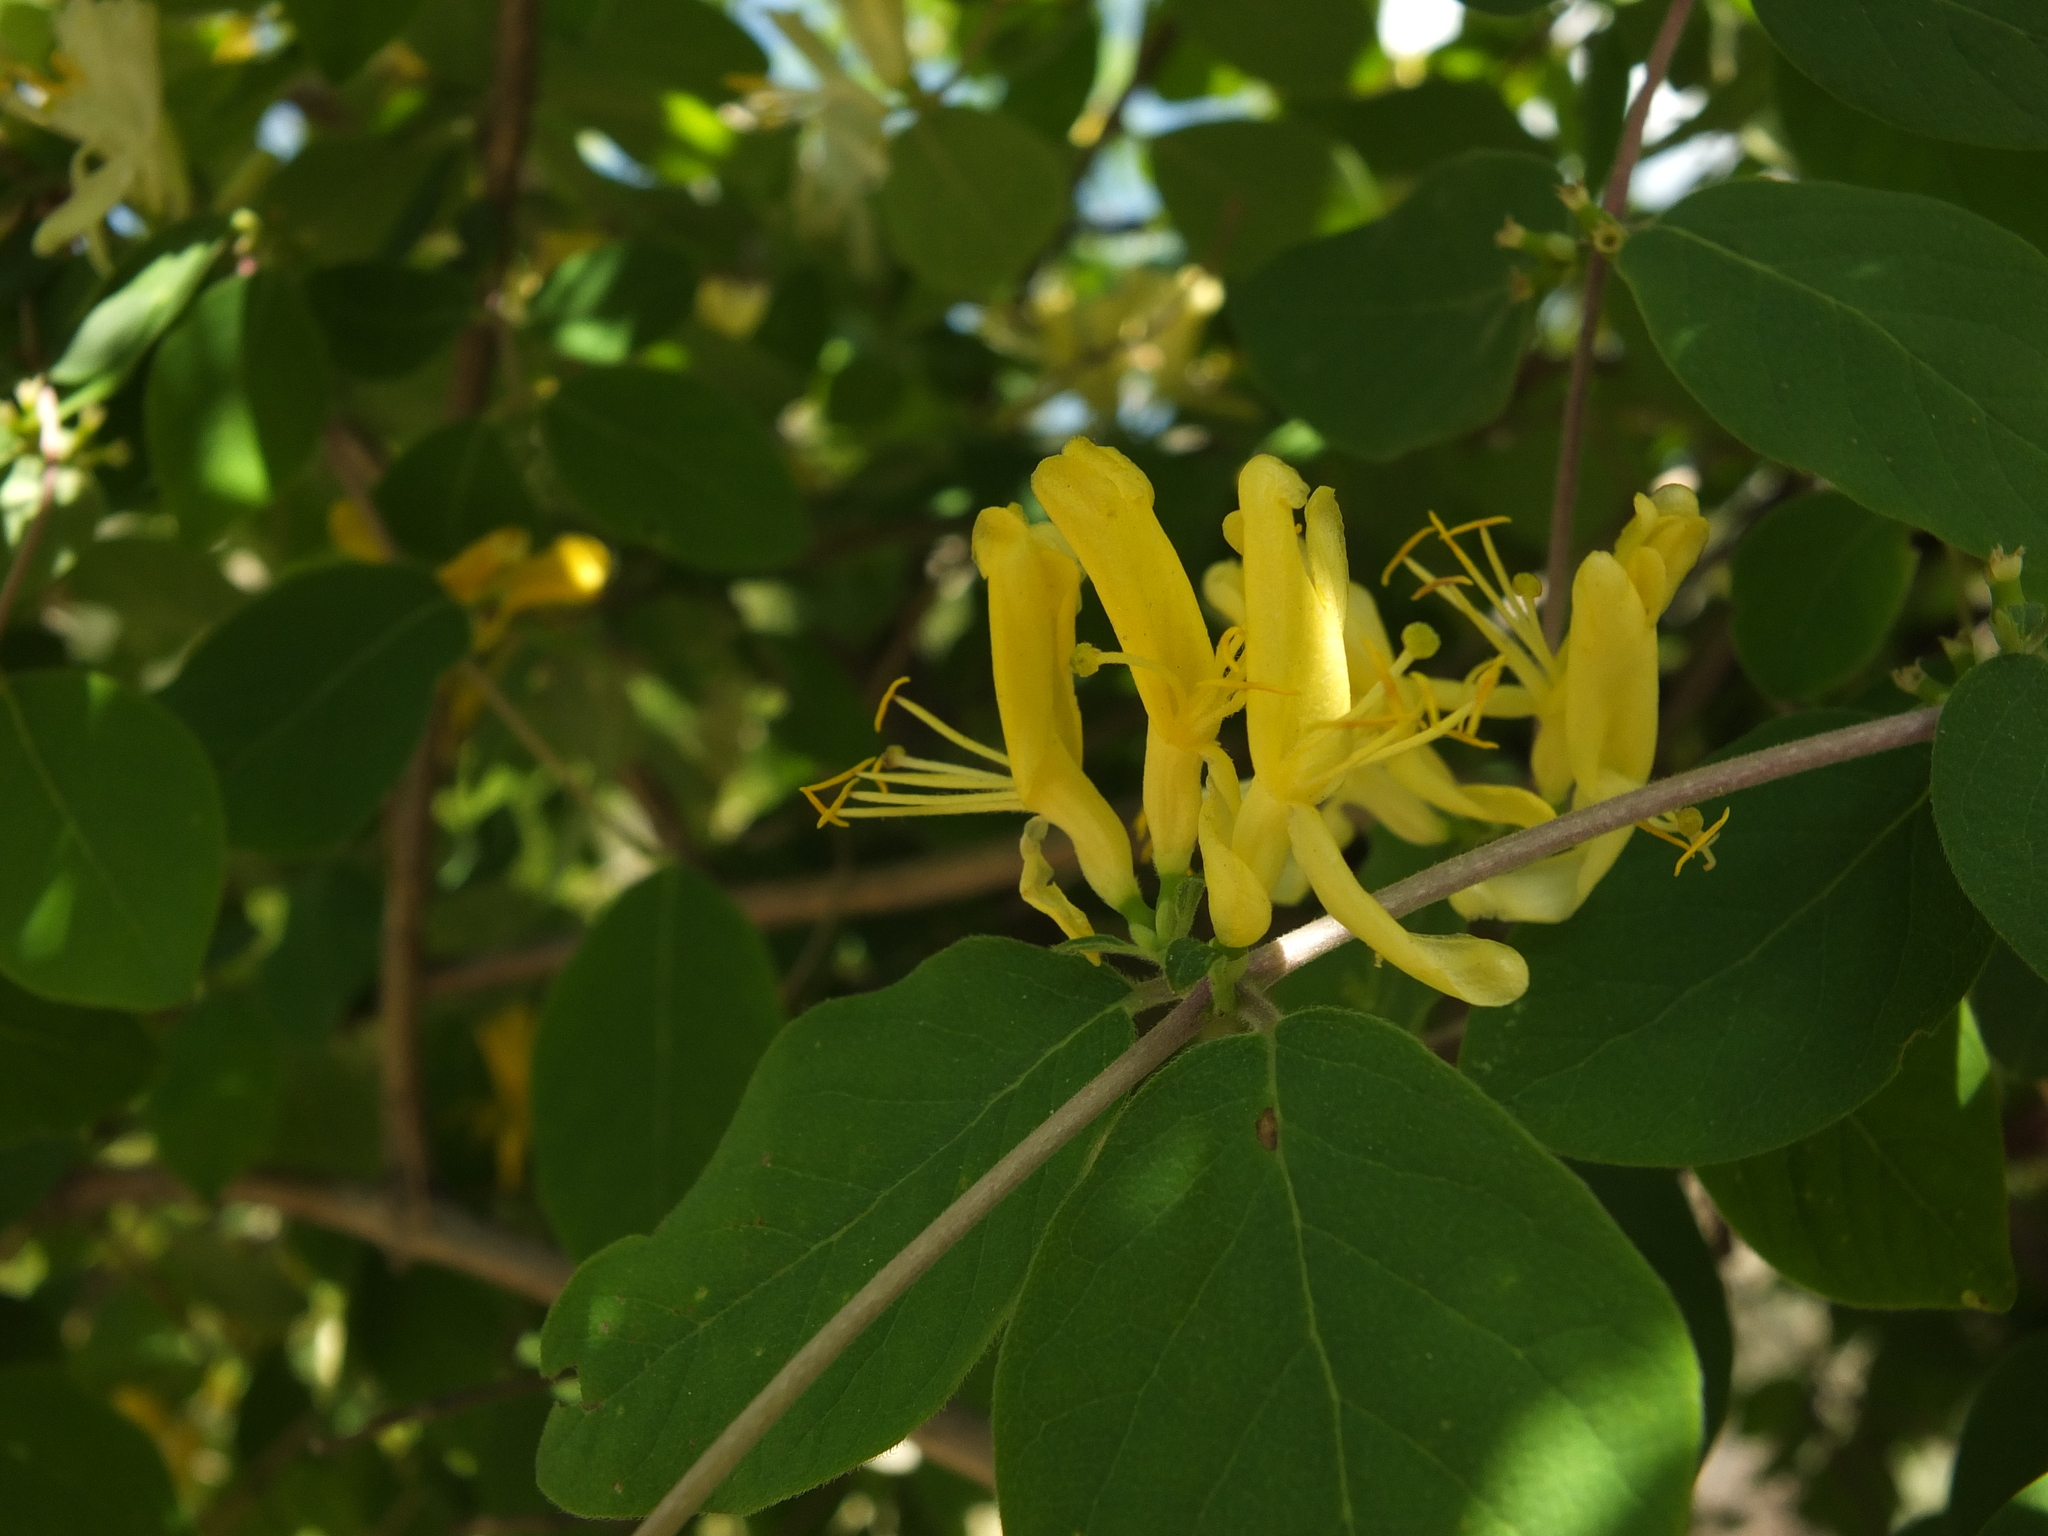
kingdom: Plantae
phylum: Tracheophyta
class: Magnoliopsida
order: Dipsacales
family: Caprifoliaceae
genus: Lonicera
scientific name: Lonicera quinquelocularis
